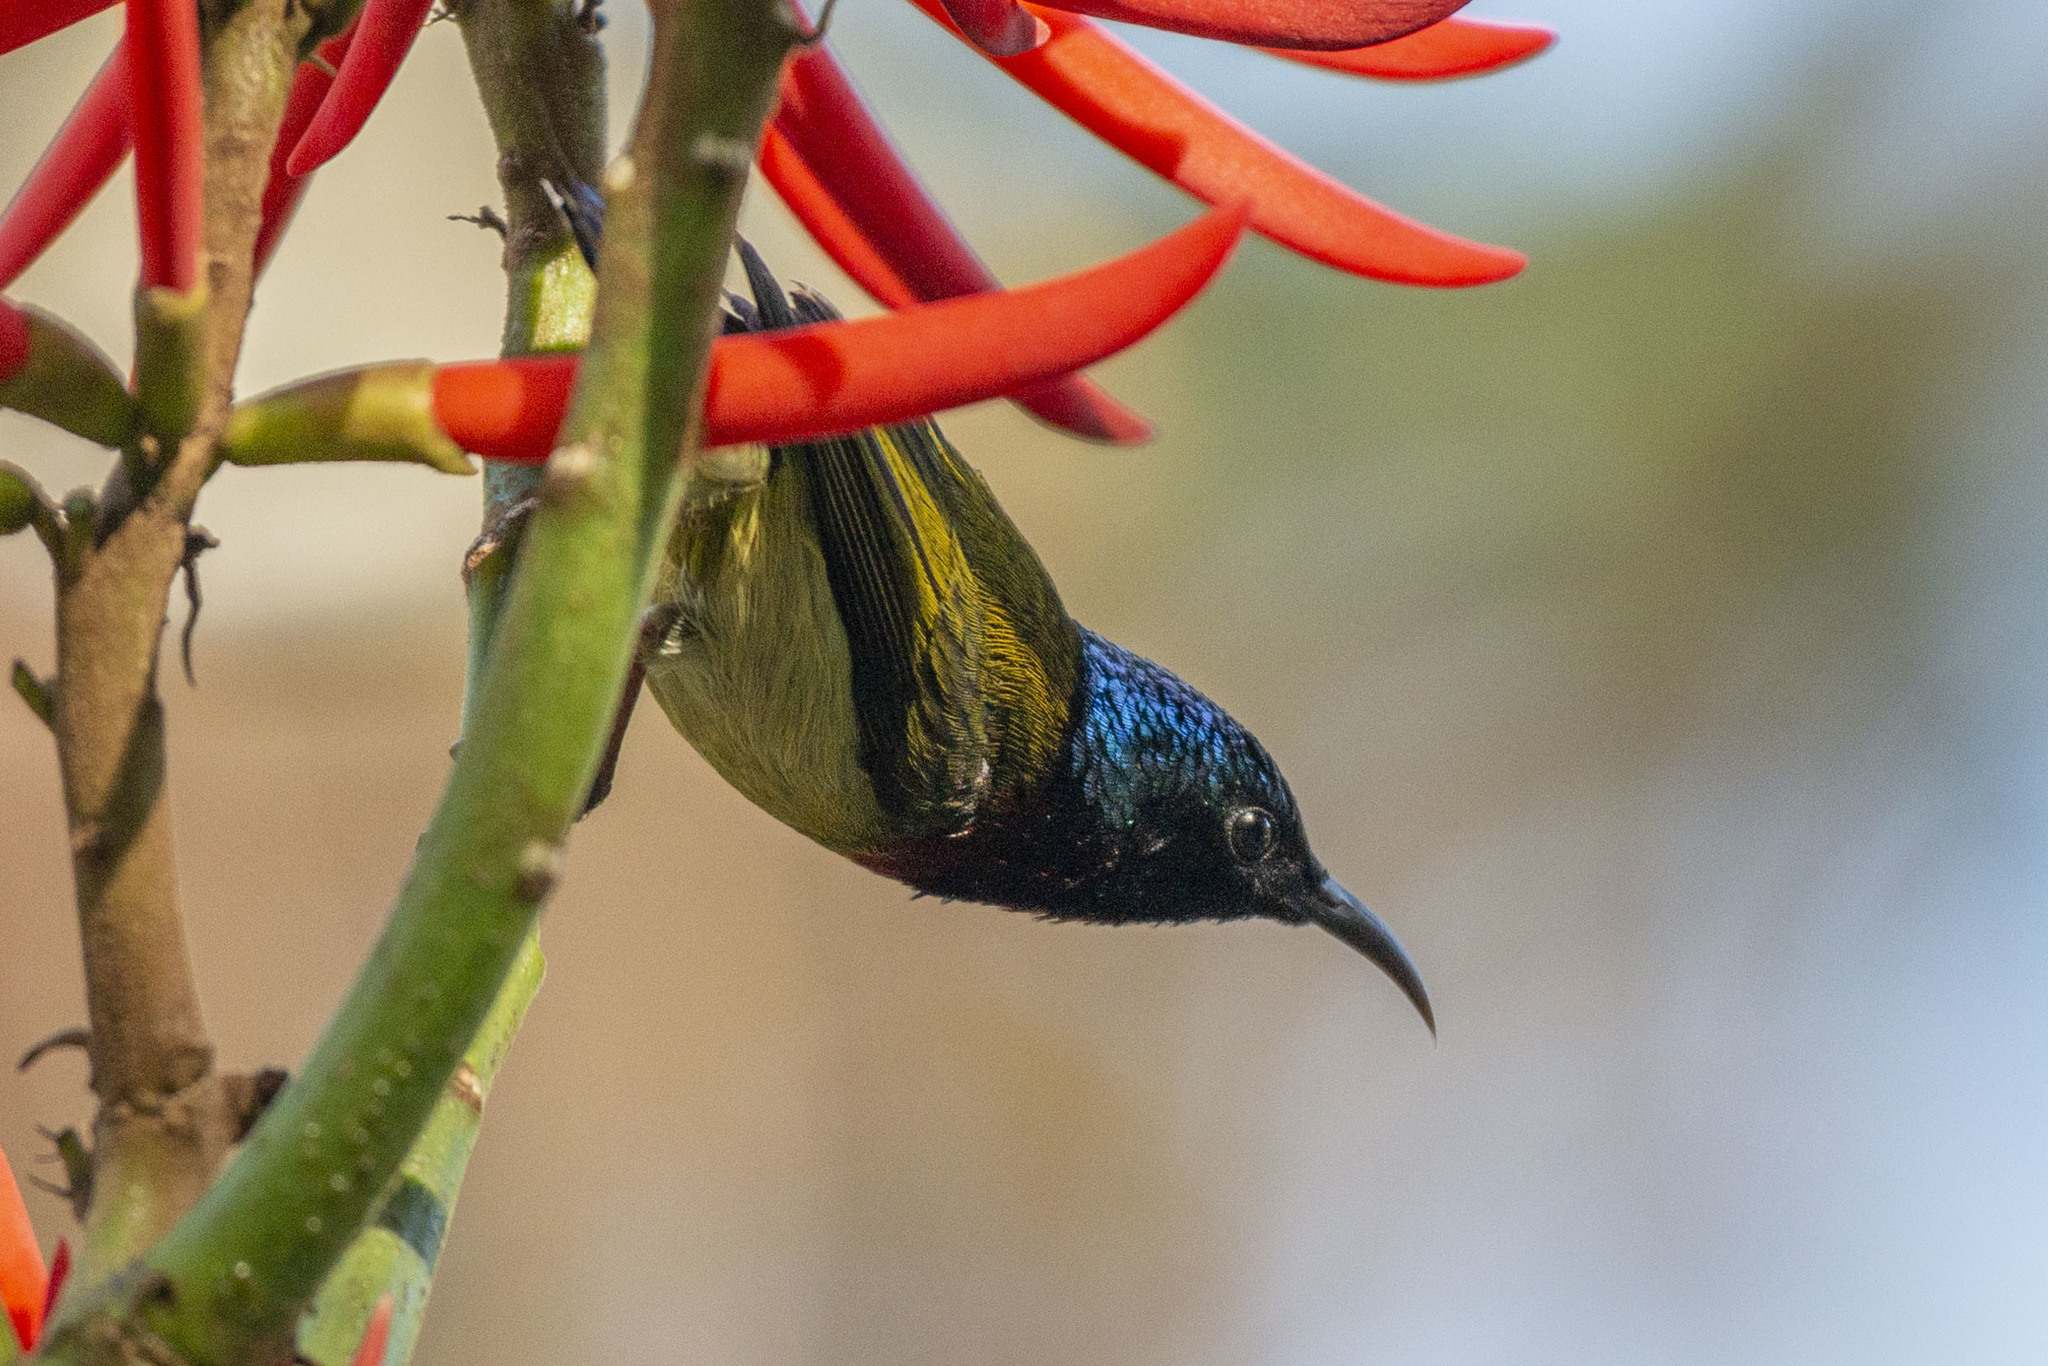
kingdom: Animalia
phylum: Chordata
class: Aves
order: Passeriformes
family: Nectariniidae
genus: Aethopyga
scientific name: Aethopyga christinae
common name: Fork-tailed sunbird
